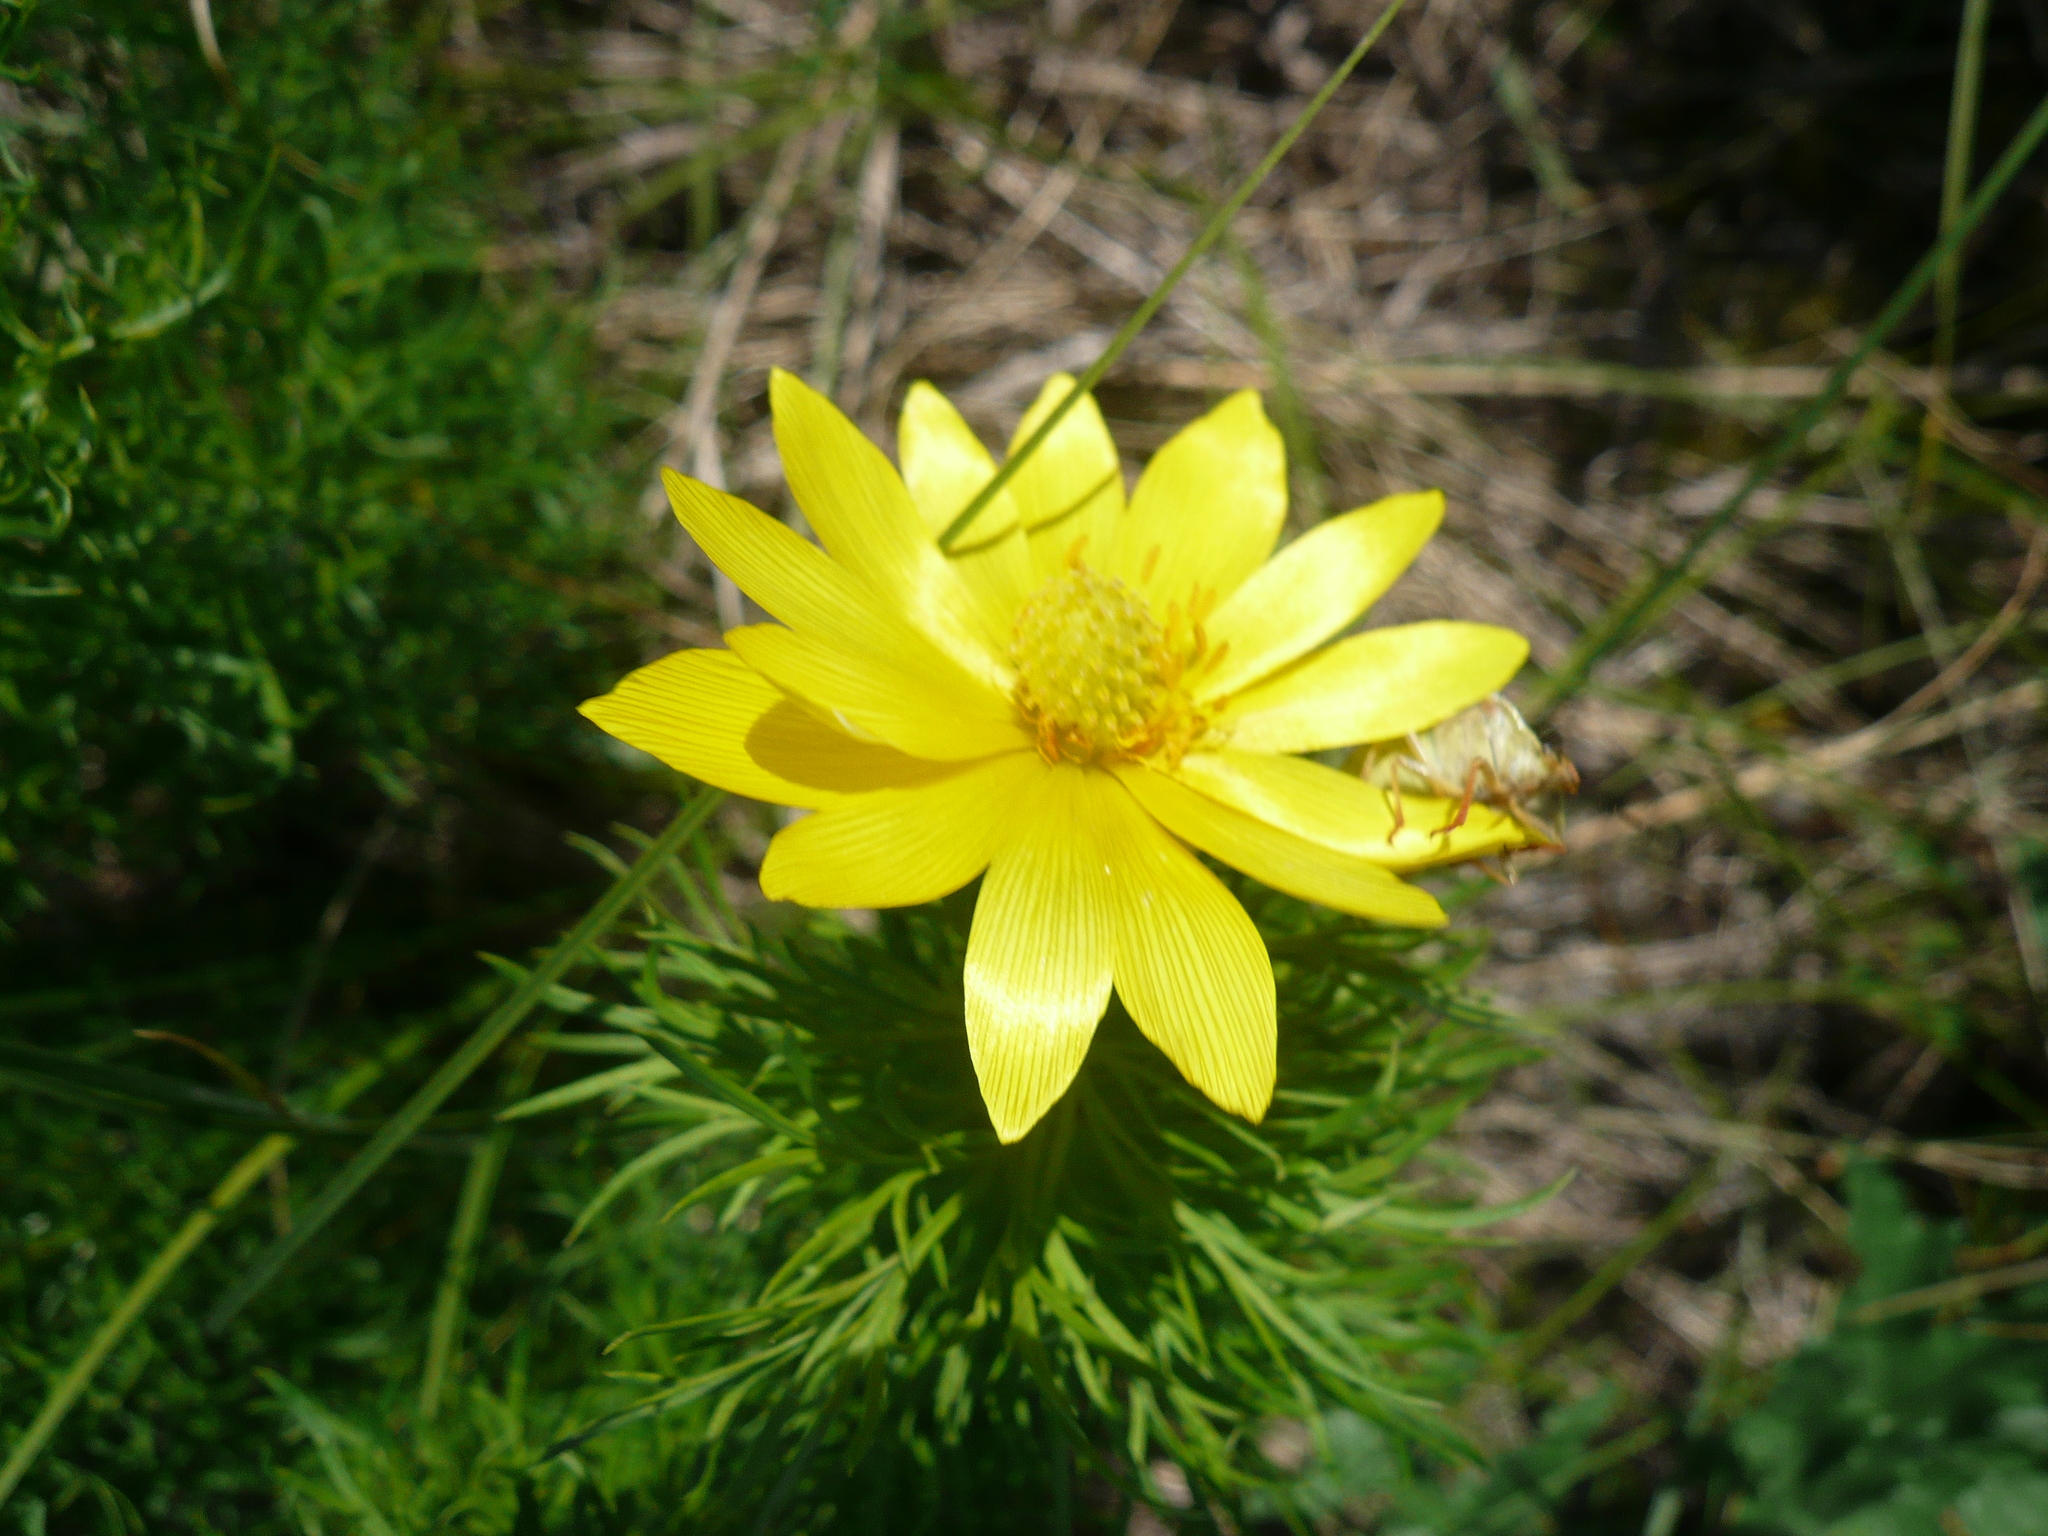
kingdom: Plantae
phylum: Tracheophyta
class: Magnoliopsida
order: Ranunculales
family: Ranunculaceae
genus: Adonis
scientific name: Adonis vernalis
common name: Yellow pheasants-eye
